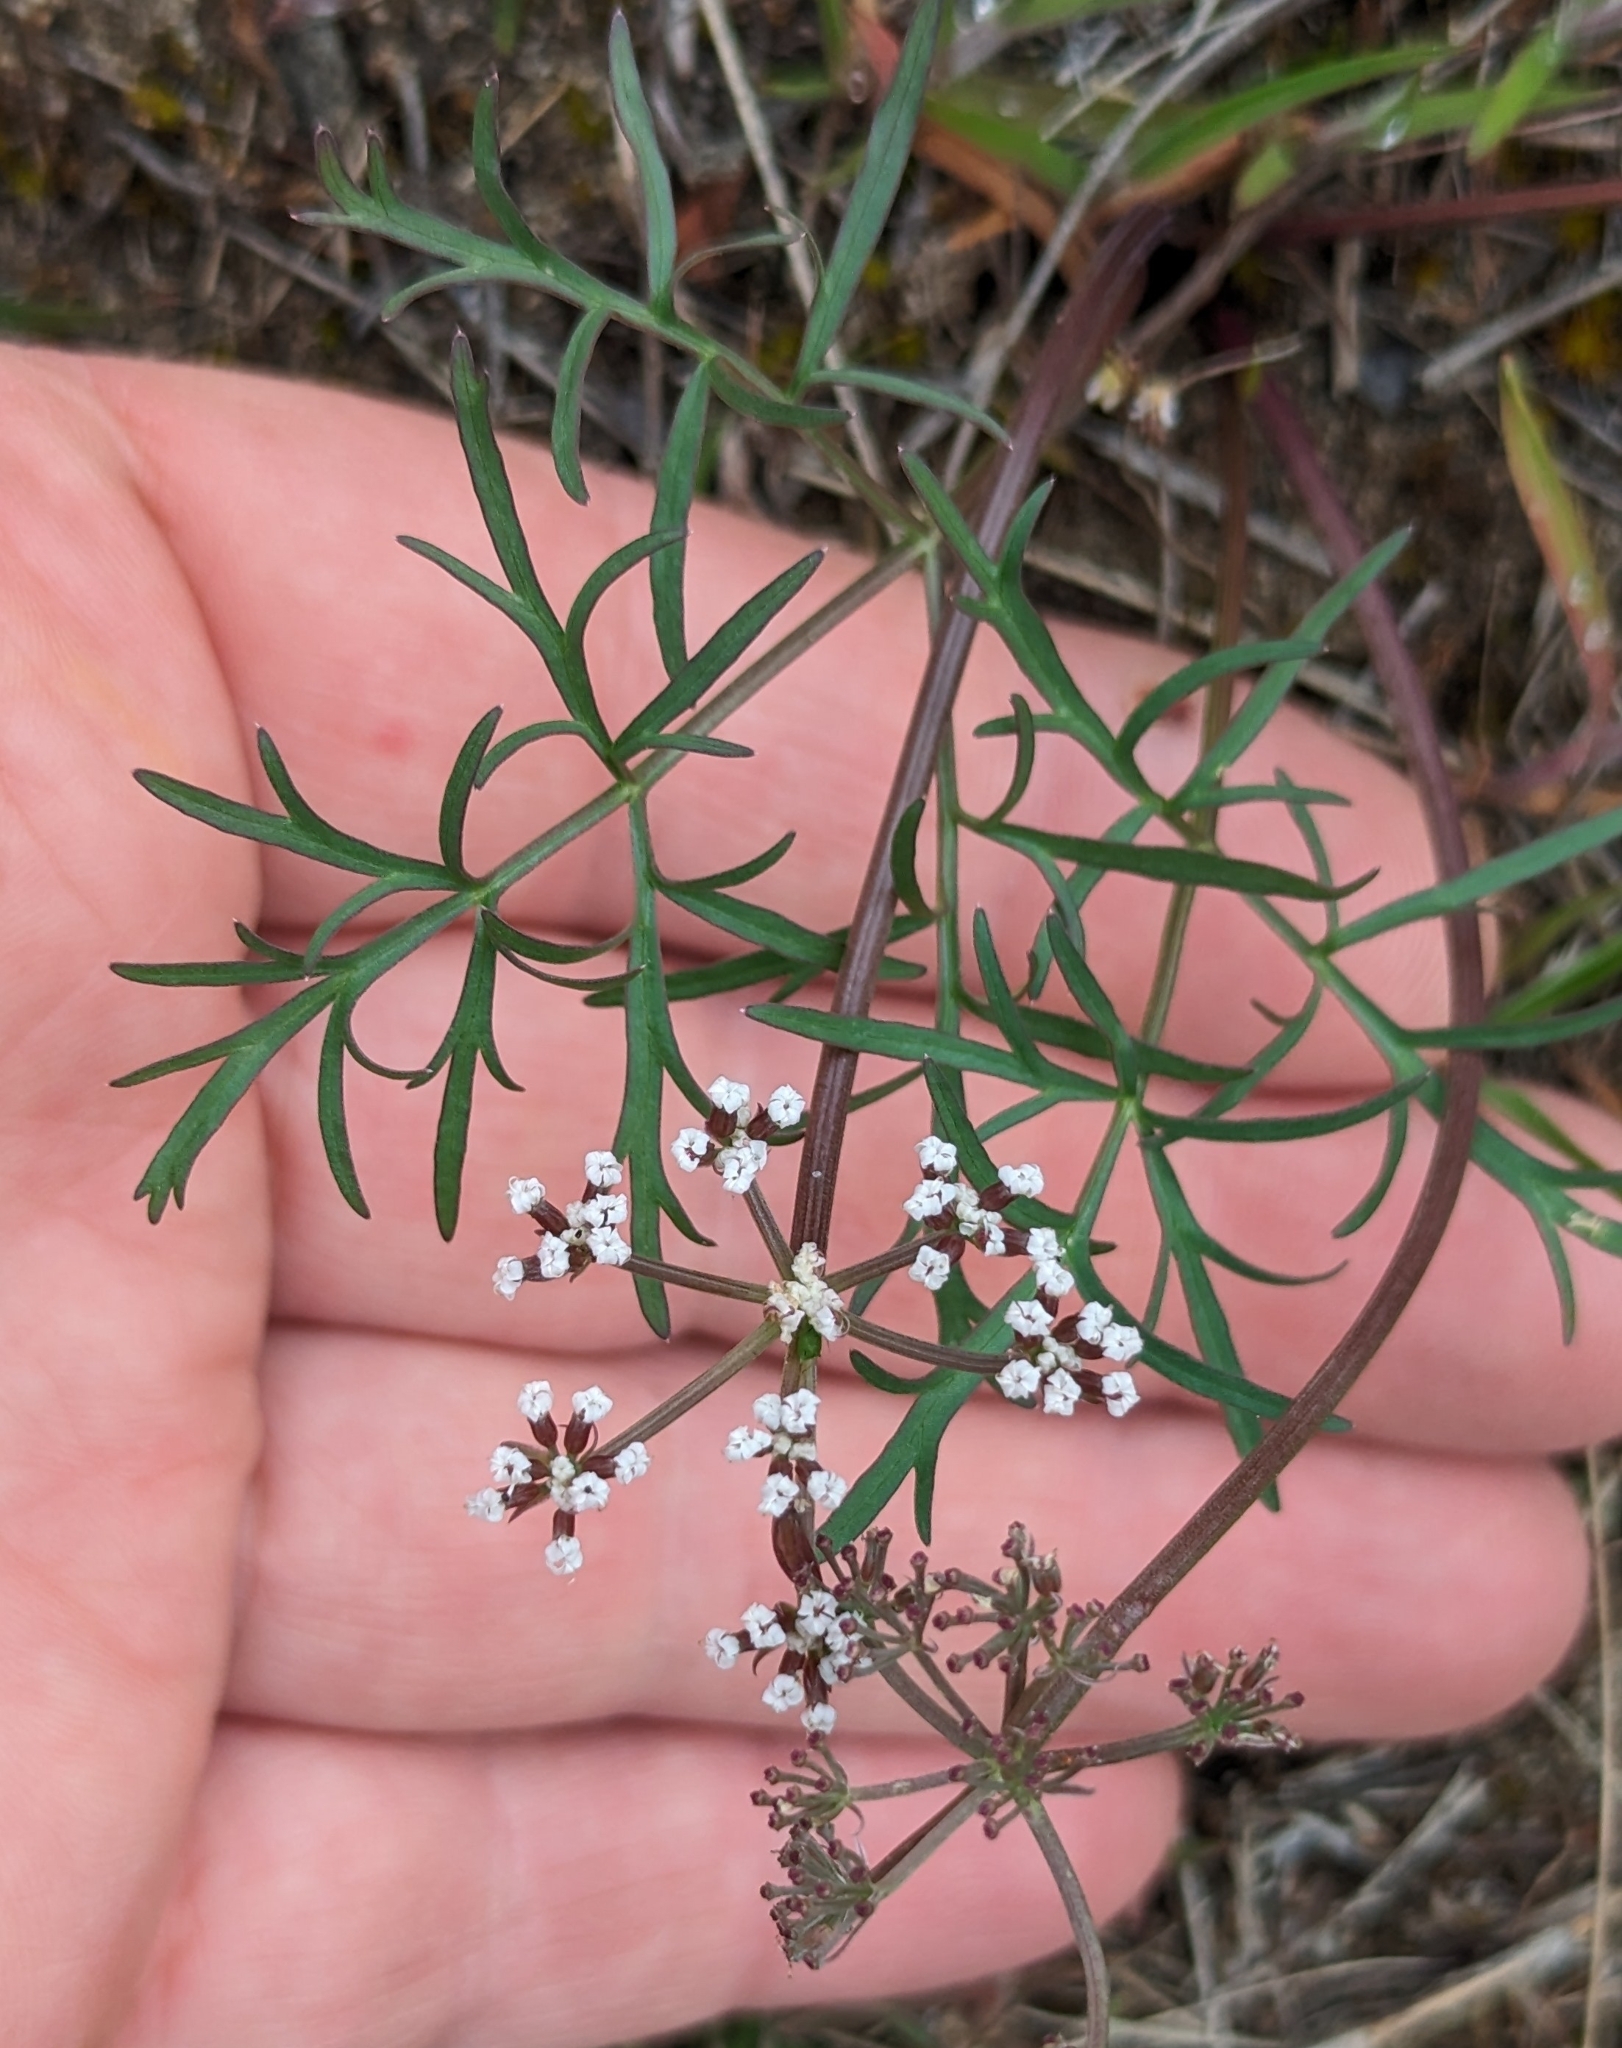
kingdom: Plantae
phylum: Tracheophyta
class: Magnoliopsida
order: Apiales
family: Apiaceae
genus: Lomatium
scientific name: Lomatium geyeri
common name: Geyer's biscuitroot
